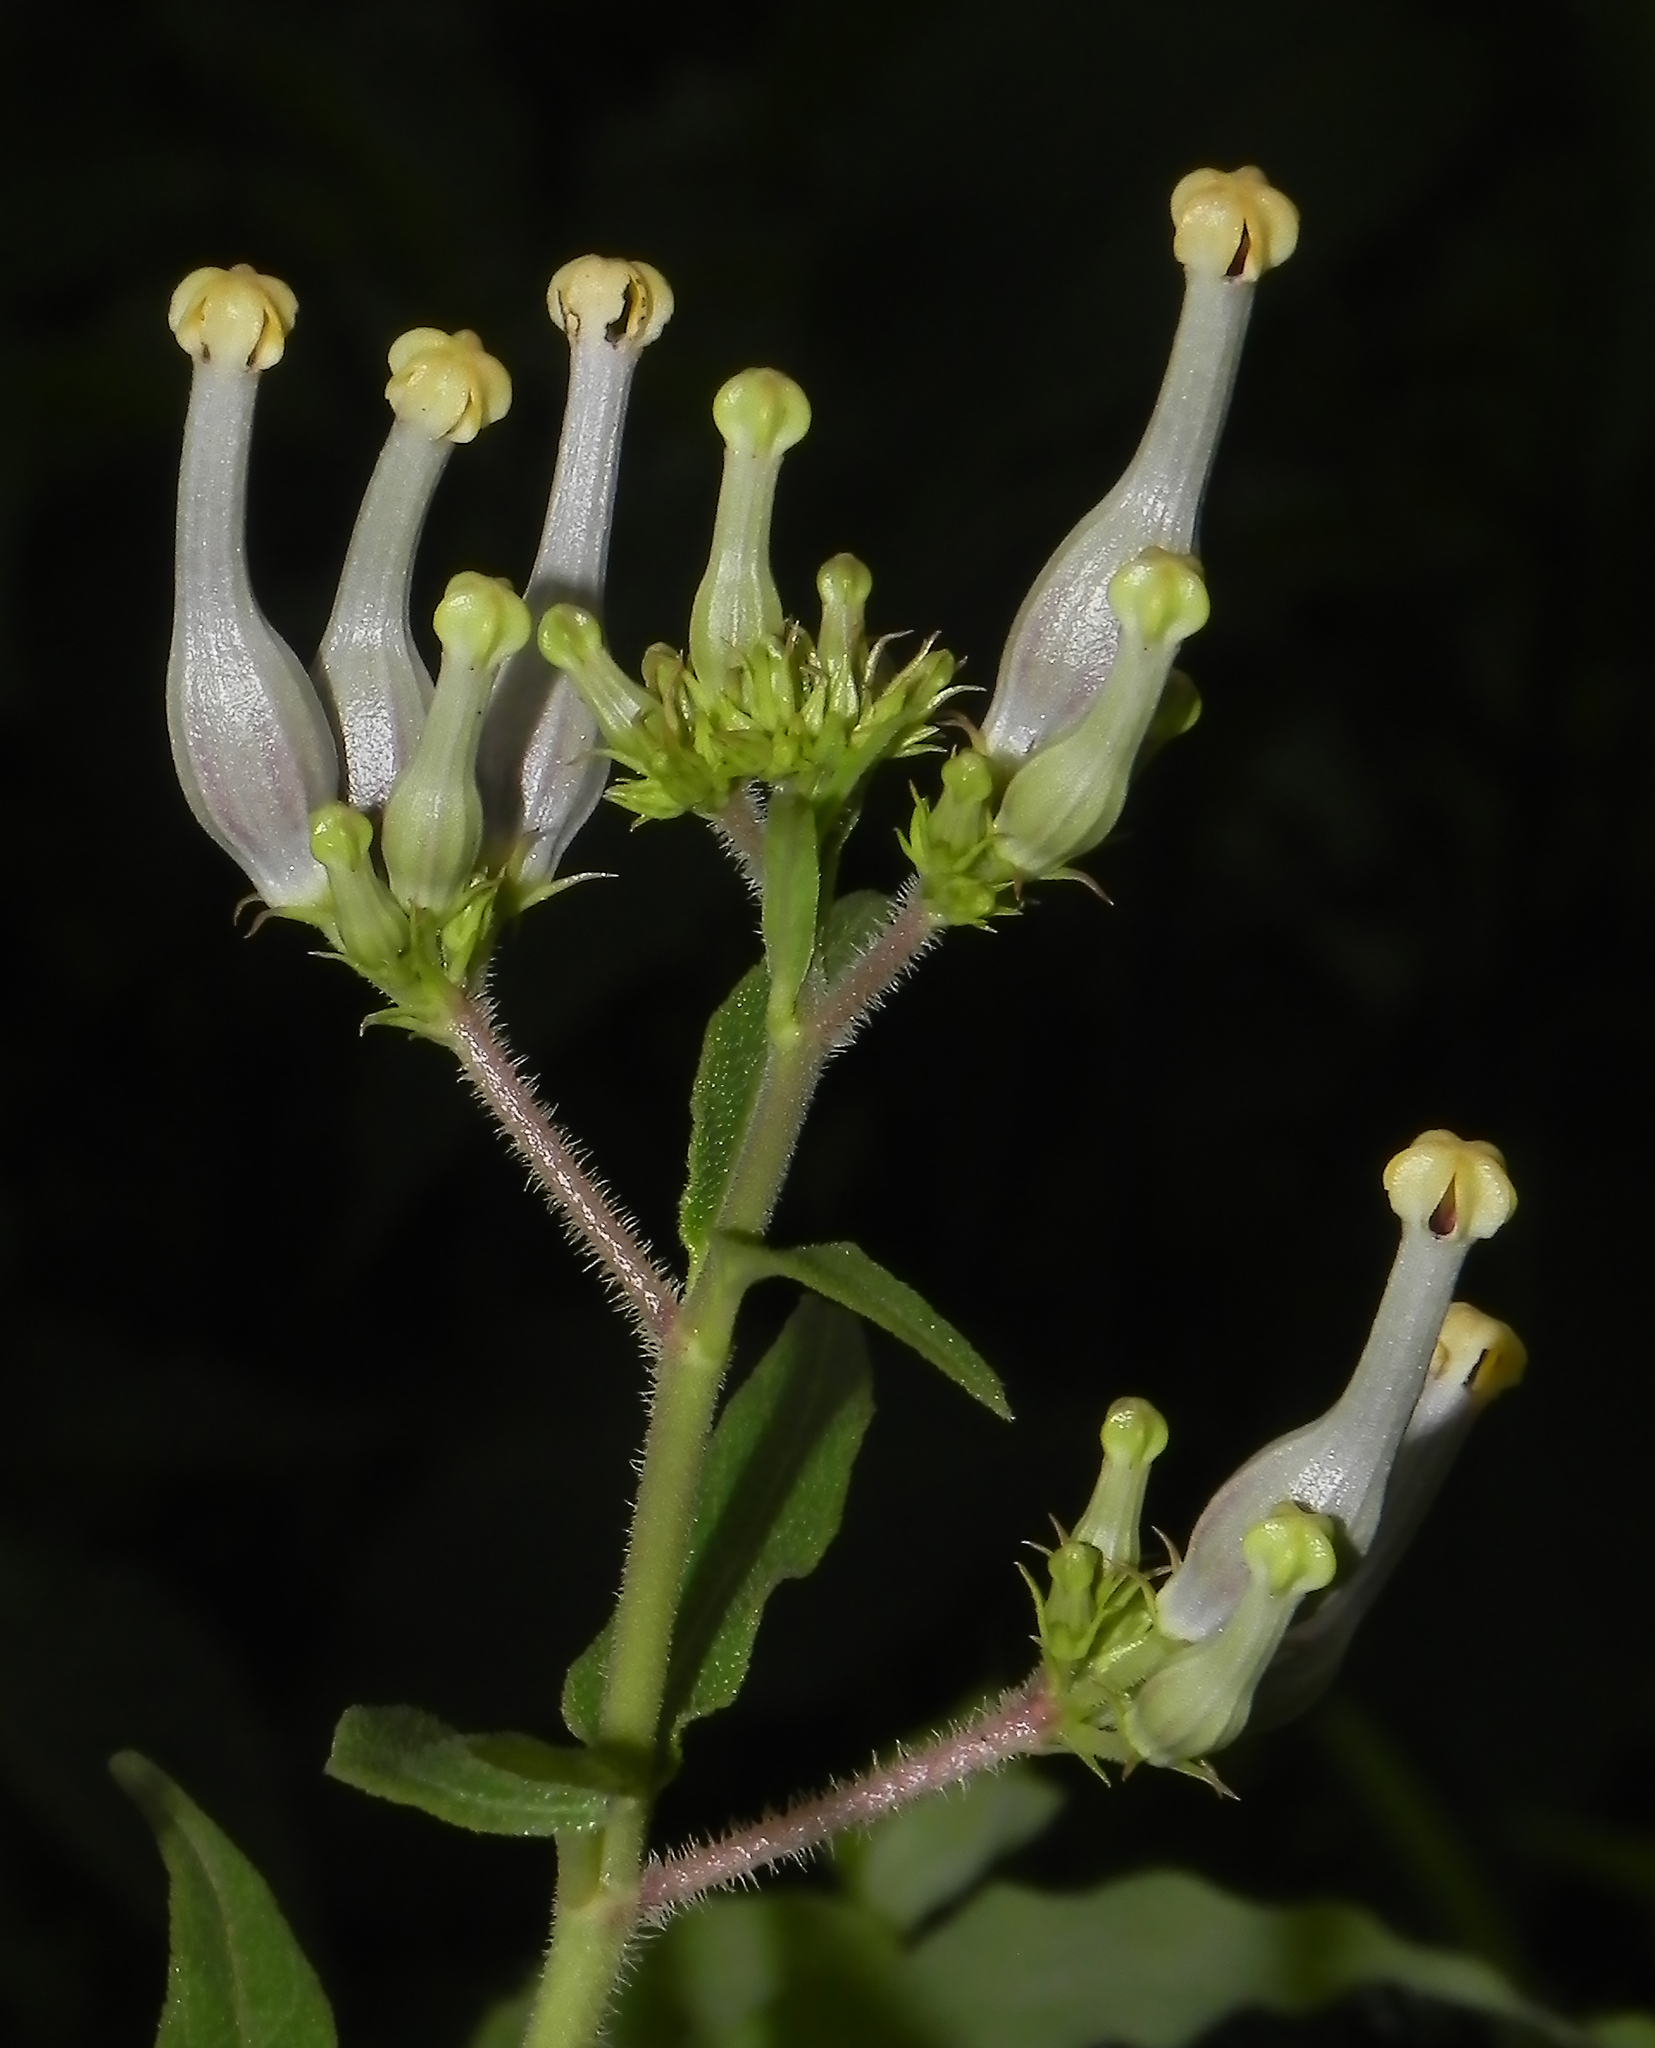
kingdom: Plantae
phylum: Tracheophyta
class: Magnoliopsida
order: Gentianales
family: Apocynaceae
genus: Ceropegia
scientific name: Ceropegia lawii
